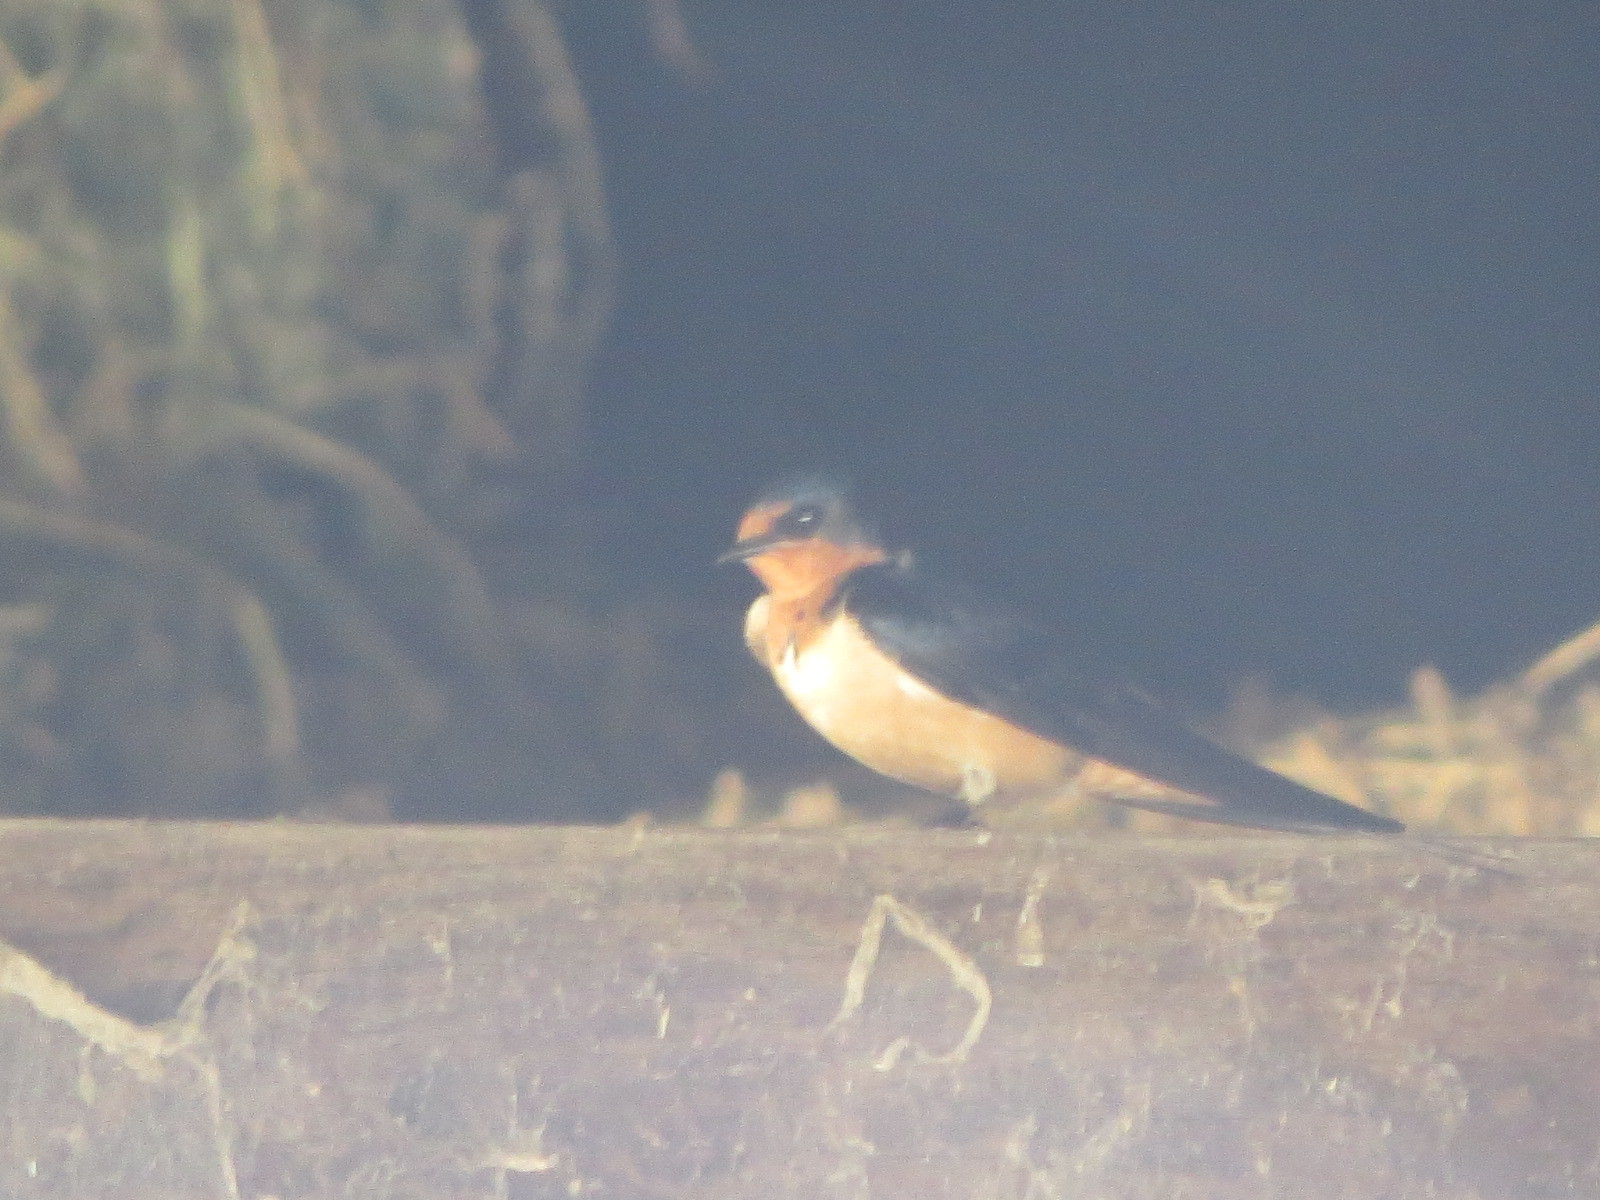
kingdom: Animalia
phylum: Chordata
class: Aves
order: Passeriformes
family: Hirundinidae
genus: Hirundo
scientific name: Hirundo rustica
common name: Barn swallow
